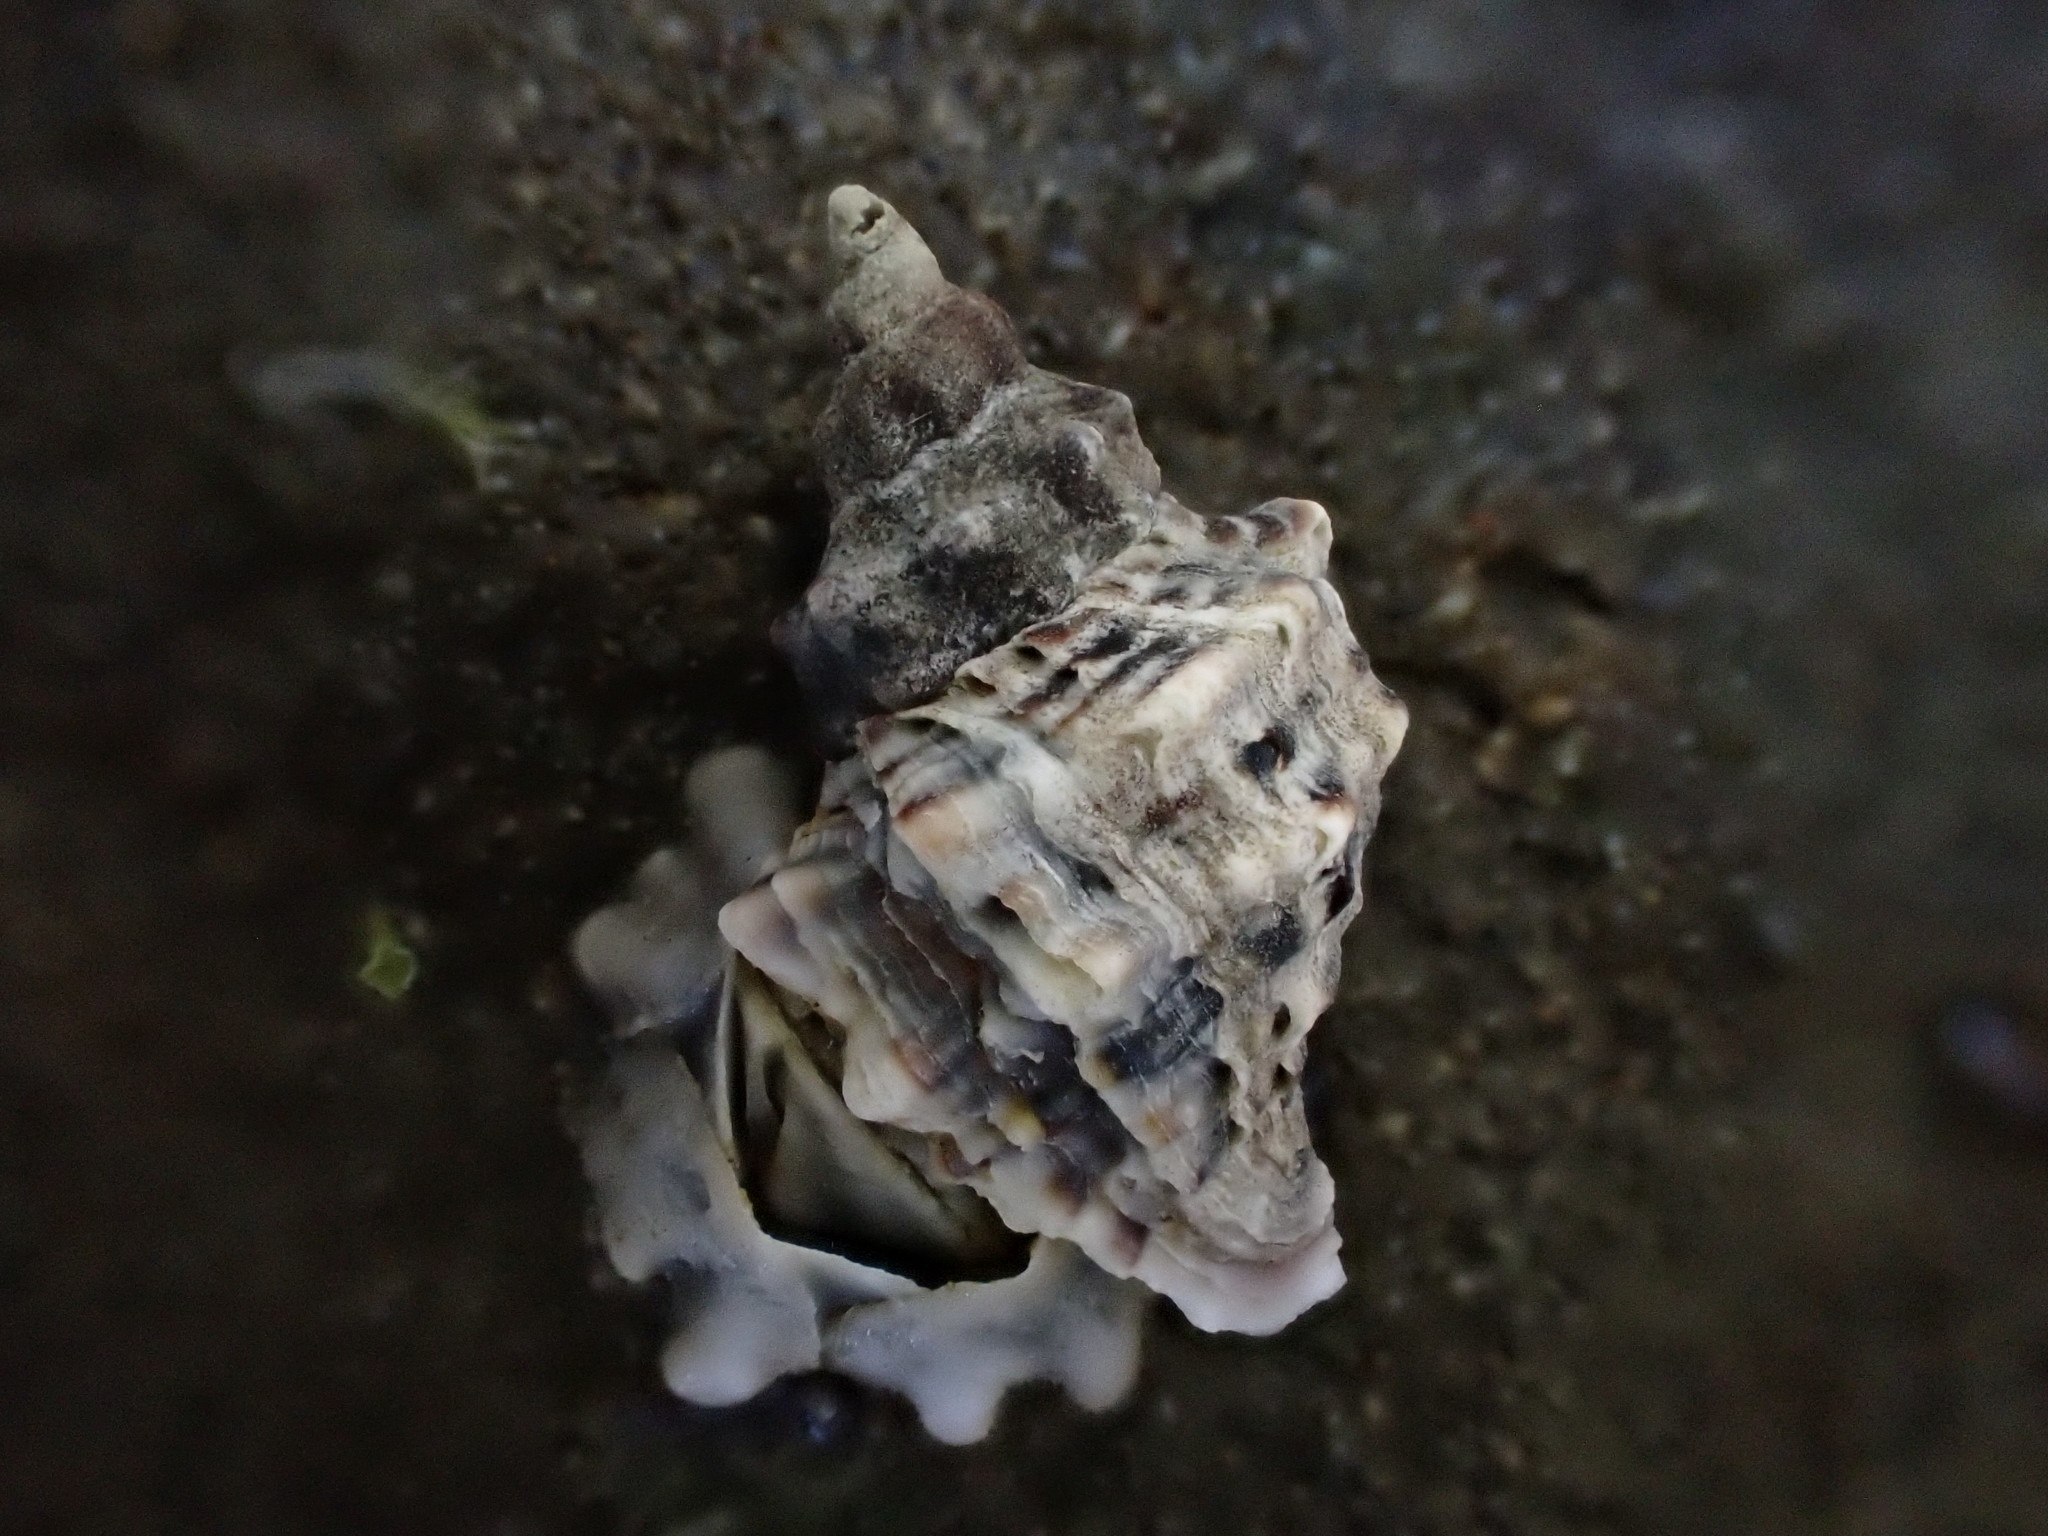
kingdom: Animalia
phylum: Mollusca
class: Gastropoda
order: Neogastropoda
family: Muricidae
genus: Haustrum
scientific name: Haustrum scobina
